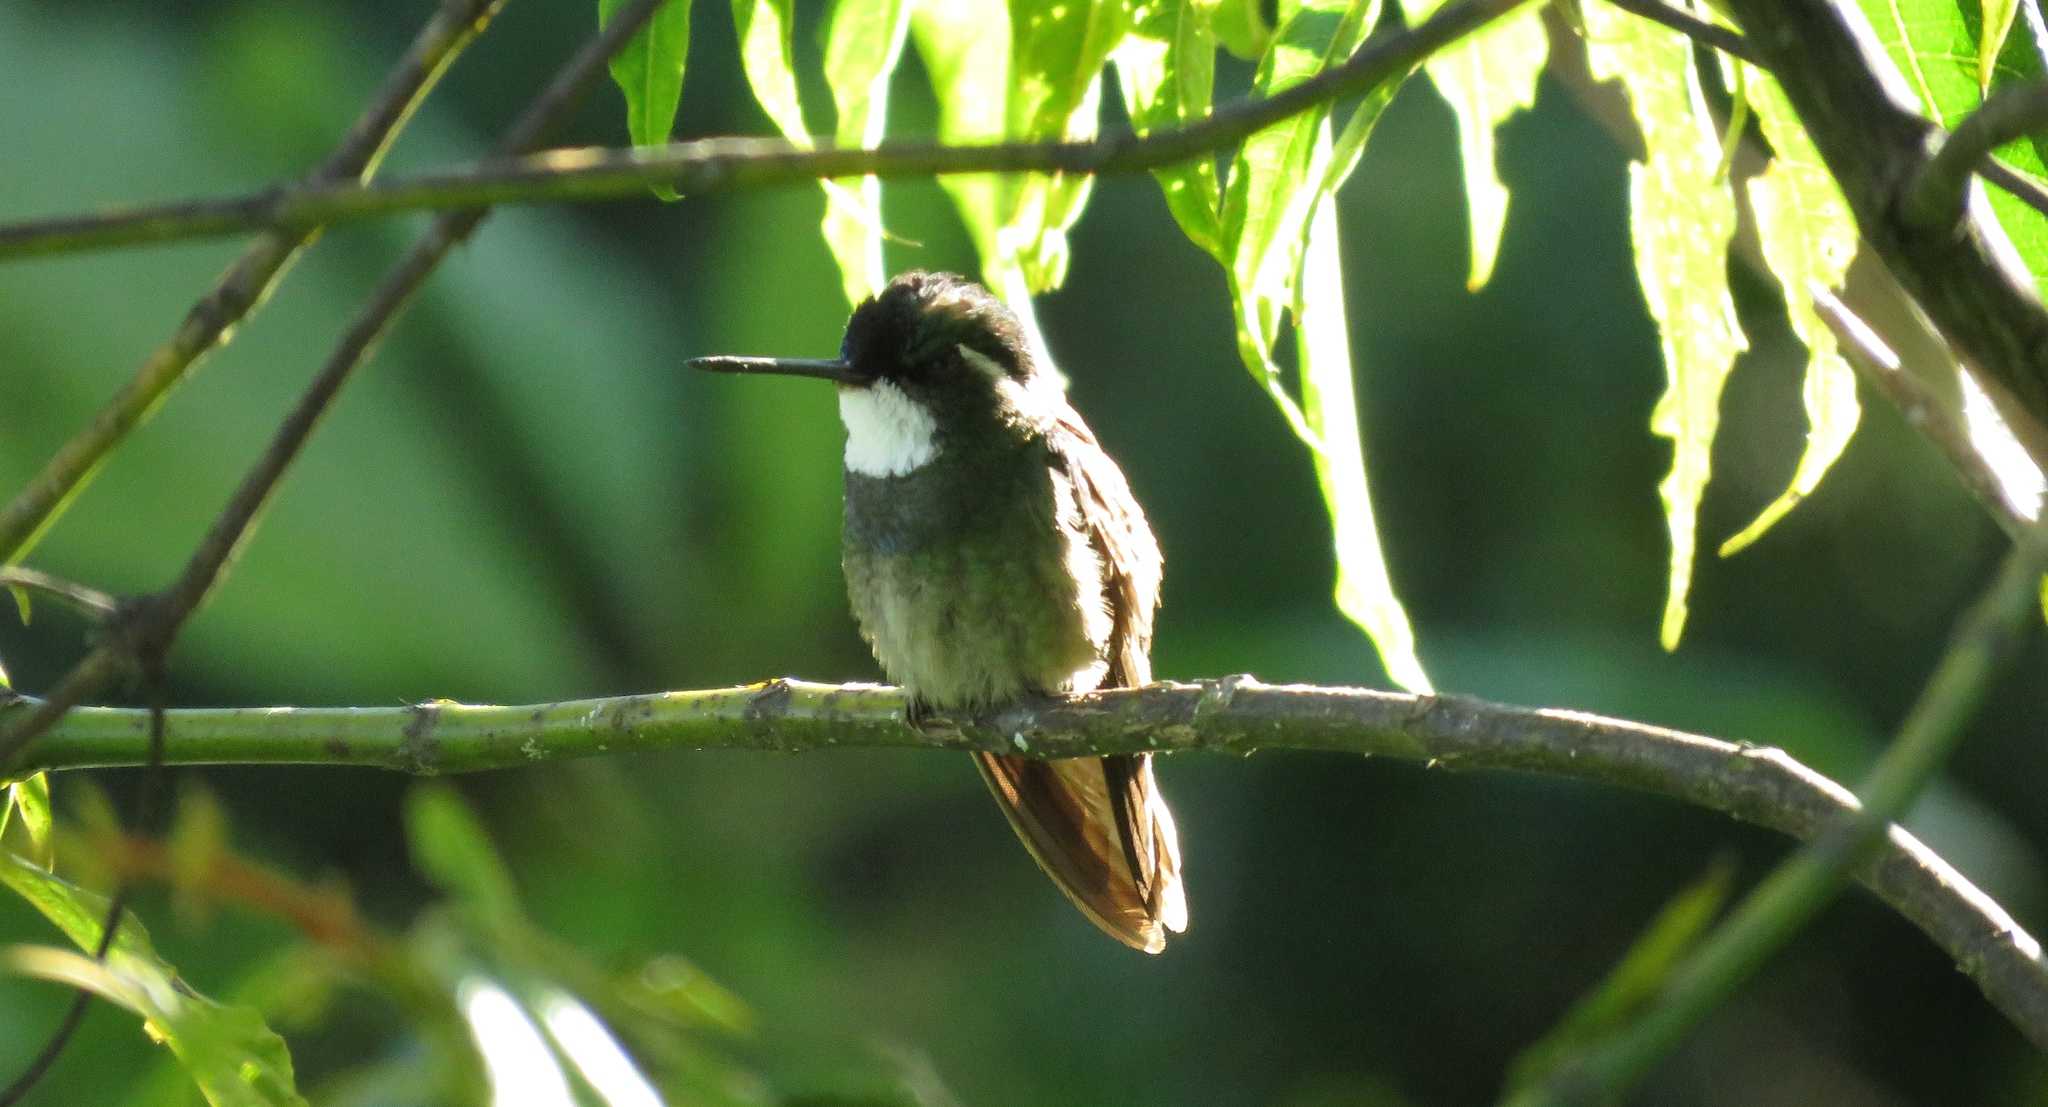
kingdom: Animalia
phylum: Chordata
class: Aves
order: Apodiformes
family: Trochilidae
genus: Lampornis
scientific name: Lampornis castaneoventris
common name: White-throated mountain-gem
